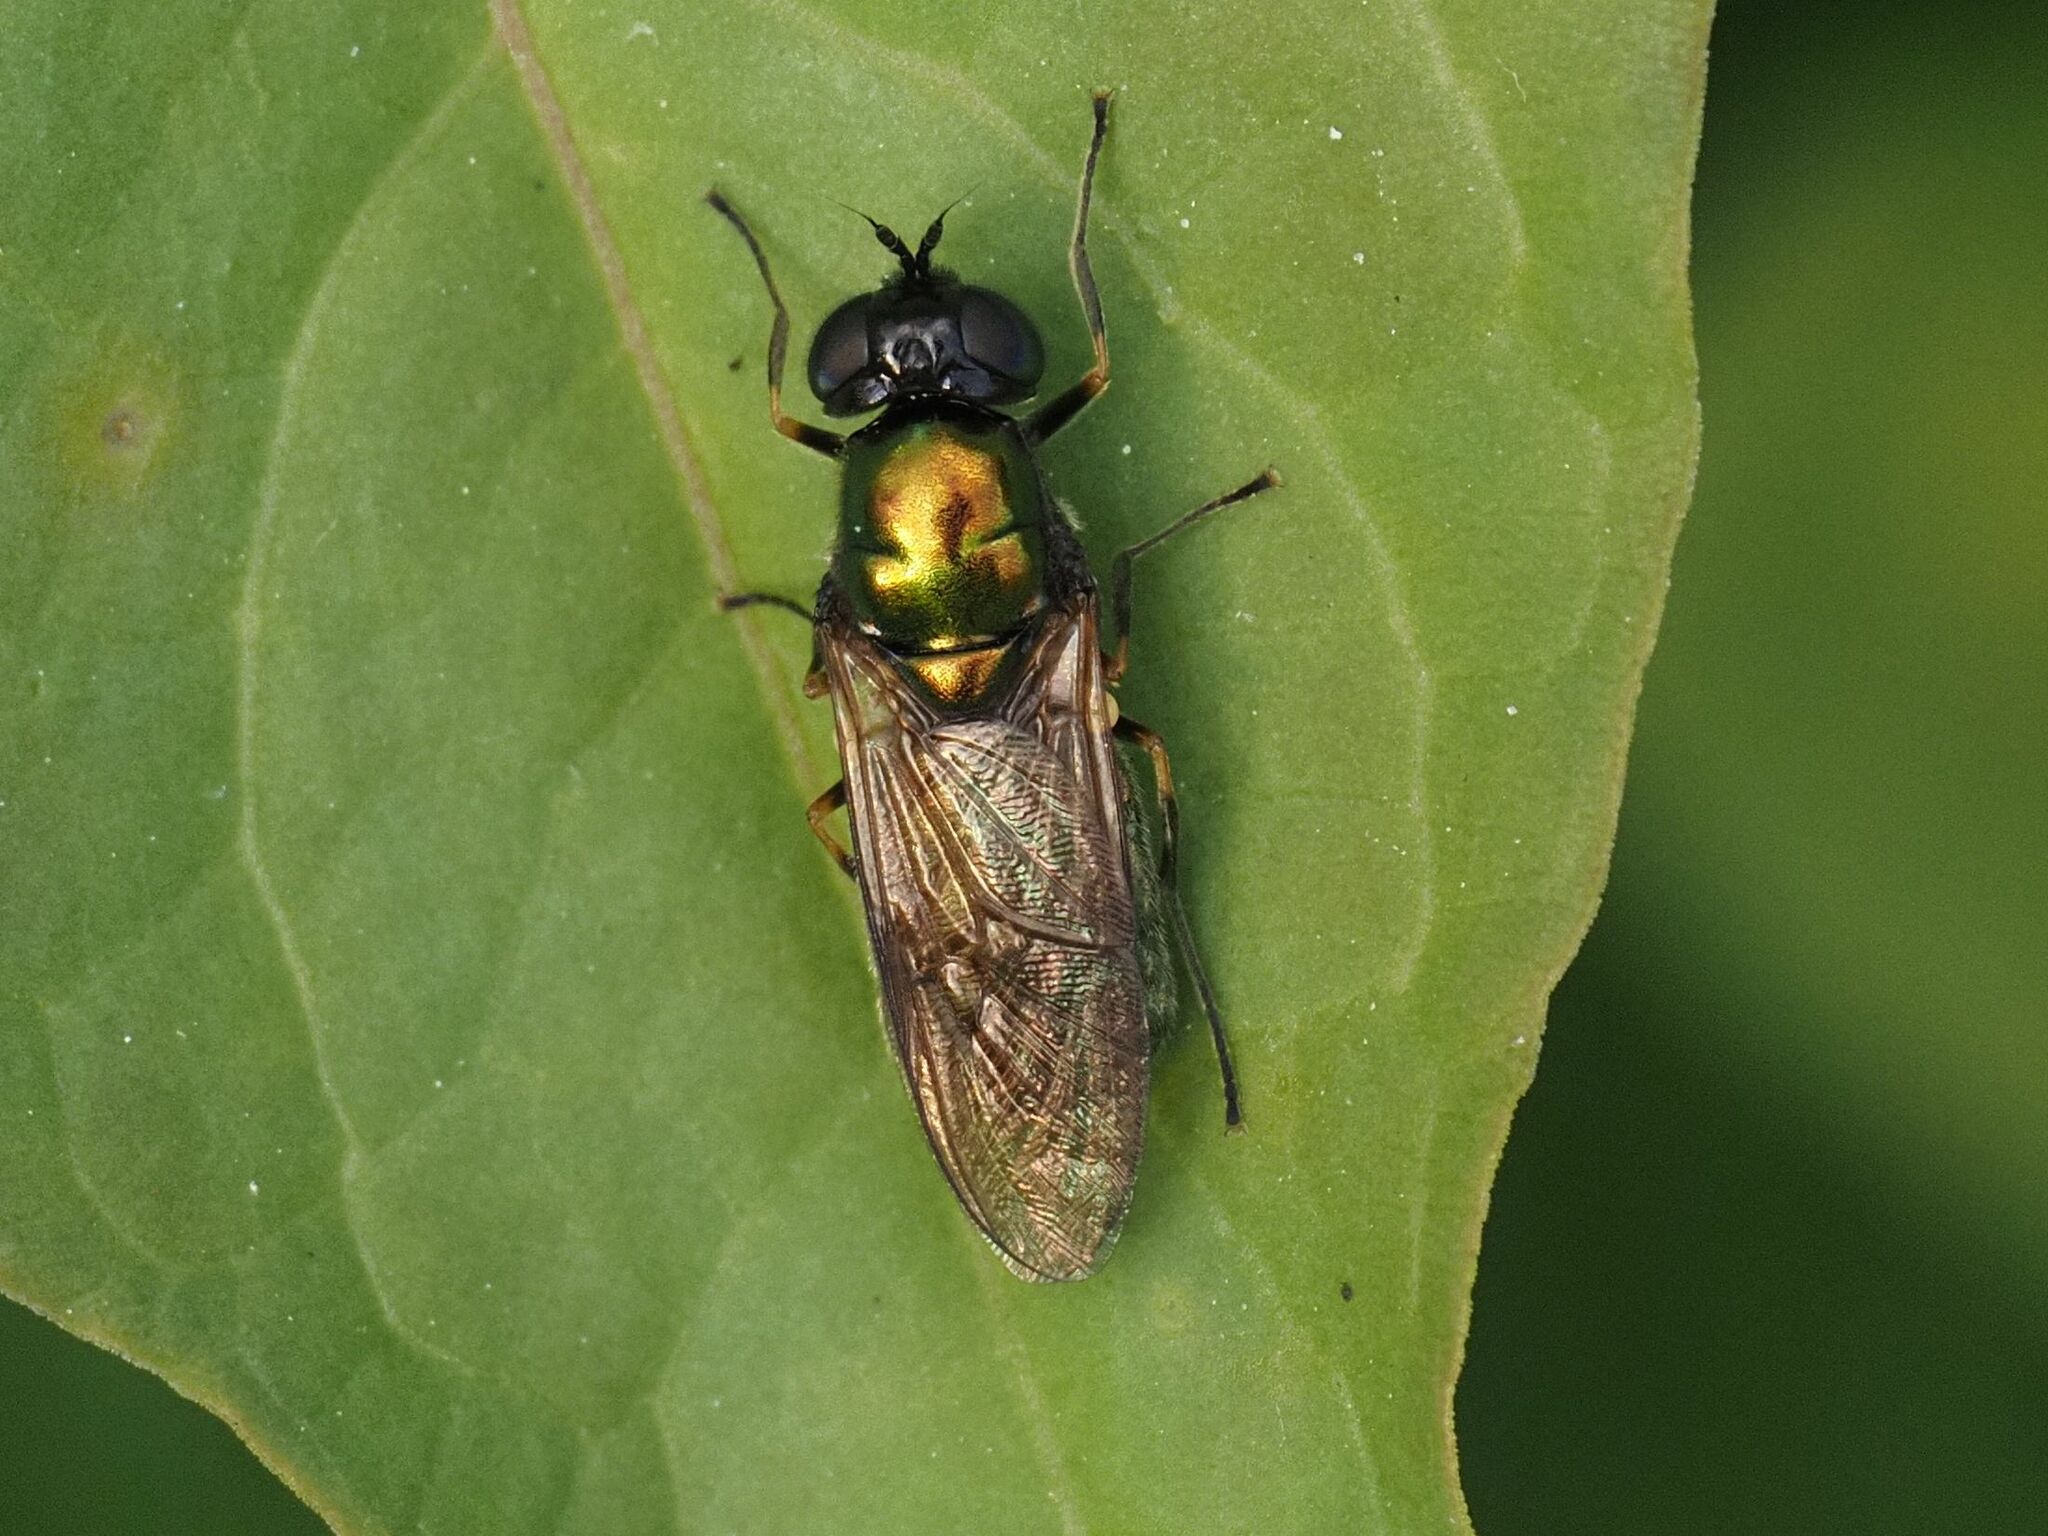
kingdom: Animalia
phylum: Arthropoda
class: Insecta
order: Diptera
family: Stratiomyidae
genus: Chloromyia
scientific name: Chloromyia formosa
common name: Soldier fly
